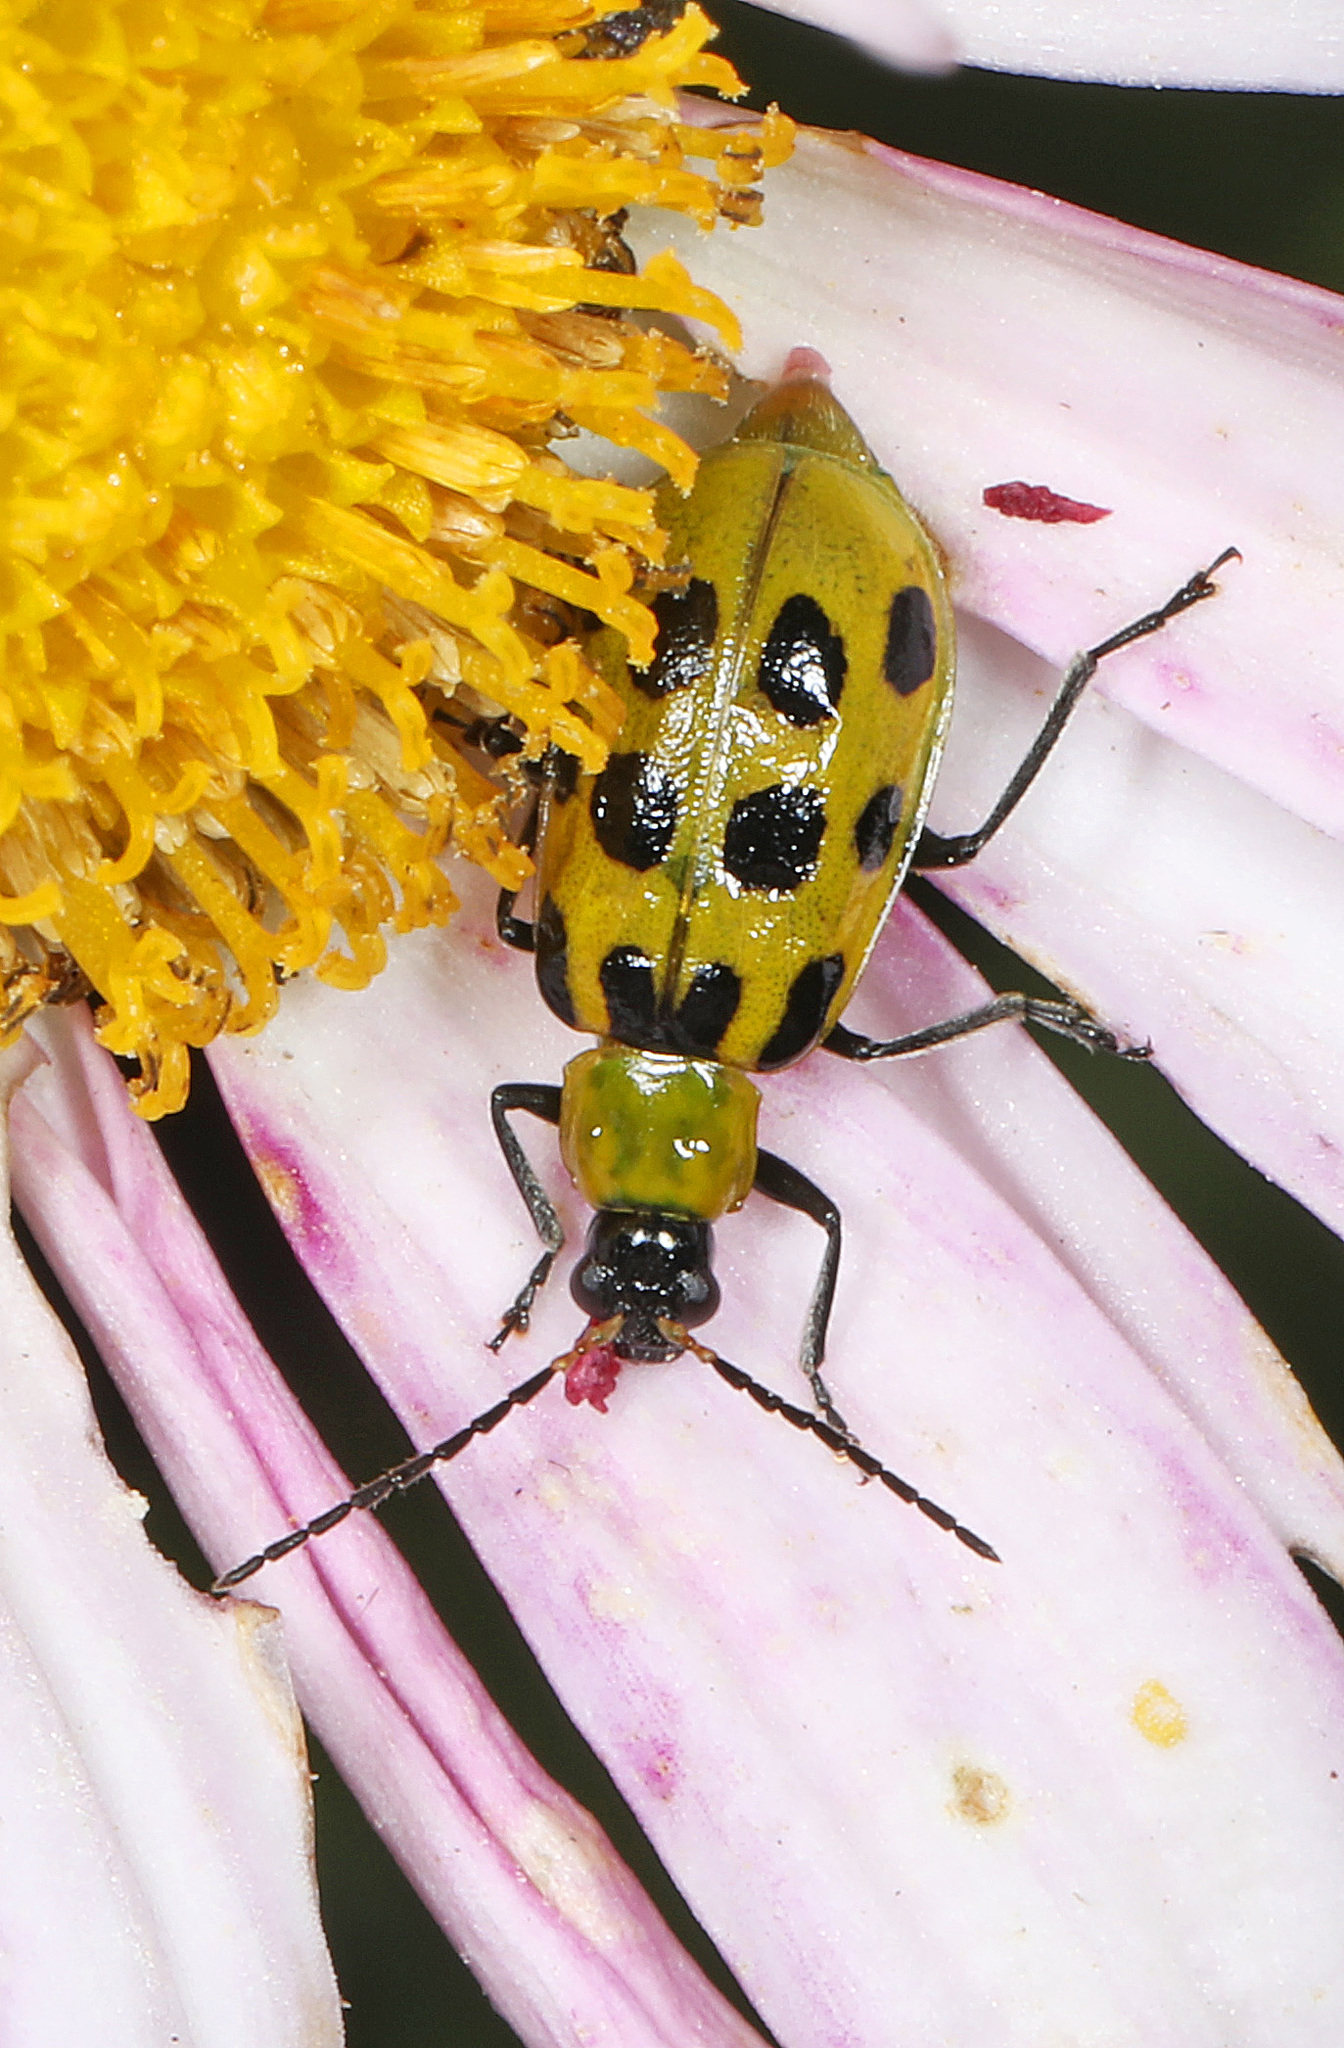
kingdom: Animalia
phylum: Arthropoda
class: Insecta
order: Coleoptera
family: Chrysomelidae
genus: Diabrotica
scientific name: Diabrotica undecimpunctata
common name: Spotted cucumber beetle
